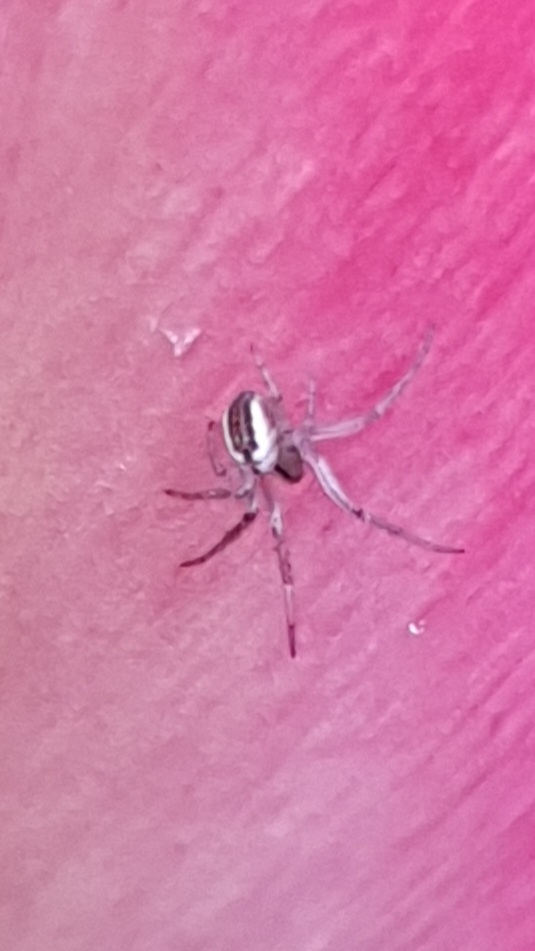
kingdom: Animalia
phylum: Arthropoda
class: Arachnida
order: Araneae
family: Araneidae
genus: Mangora
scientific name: Mangora acalypha
